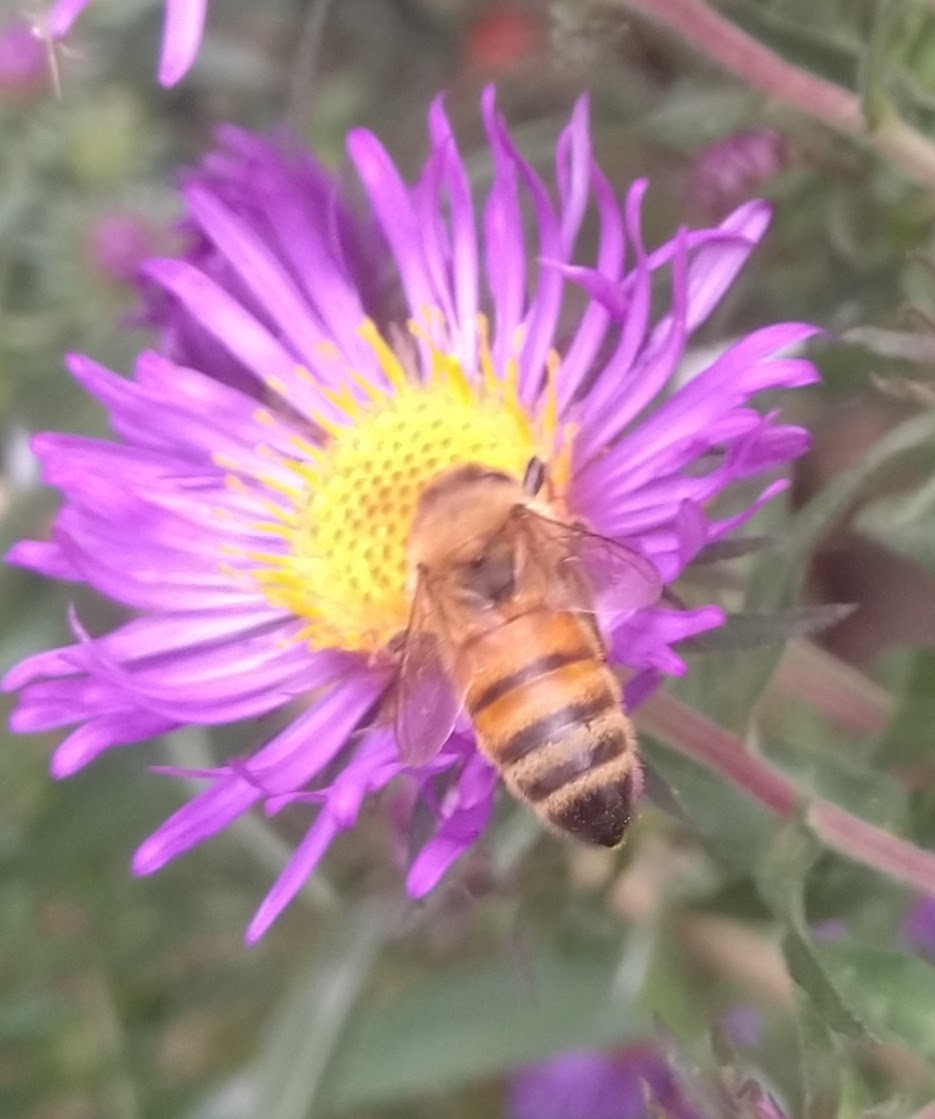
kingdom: Animalia
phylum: Arthropoda
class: Insecta
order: Hymenoptera
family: Apidae
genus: Apis
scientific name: Apis mellifera
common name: Honey bee
